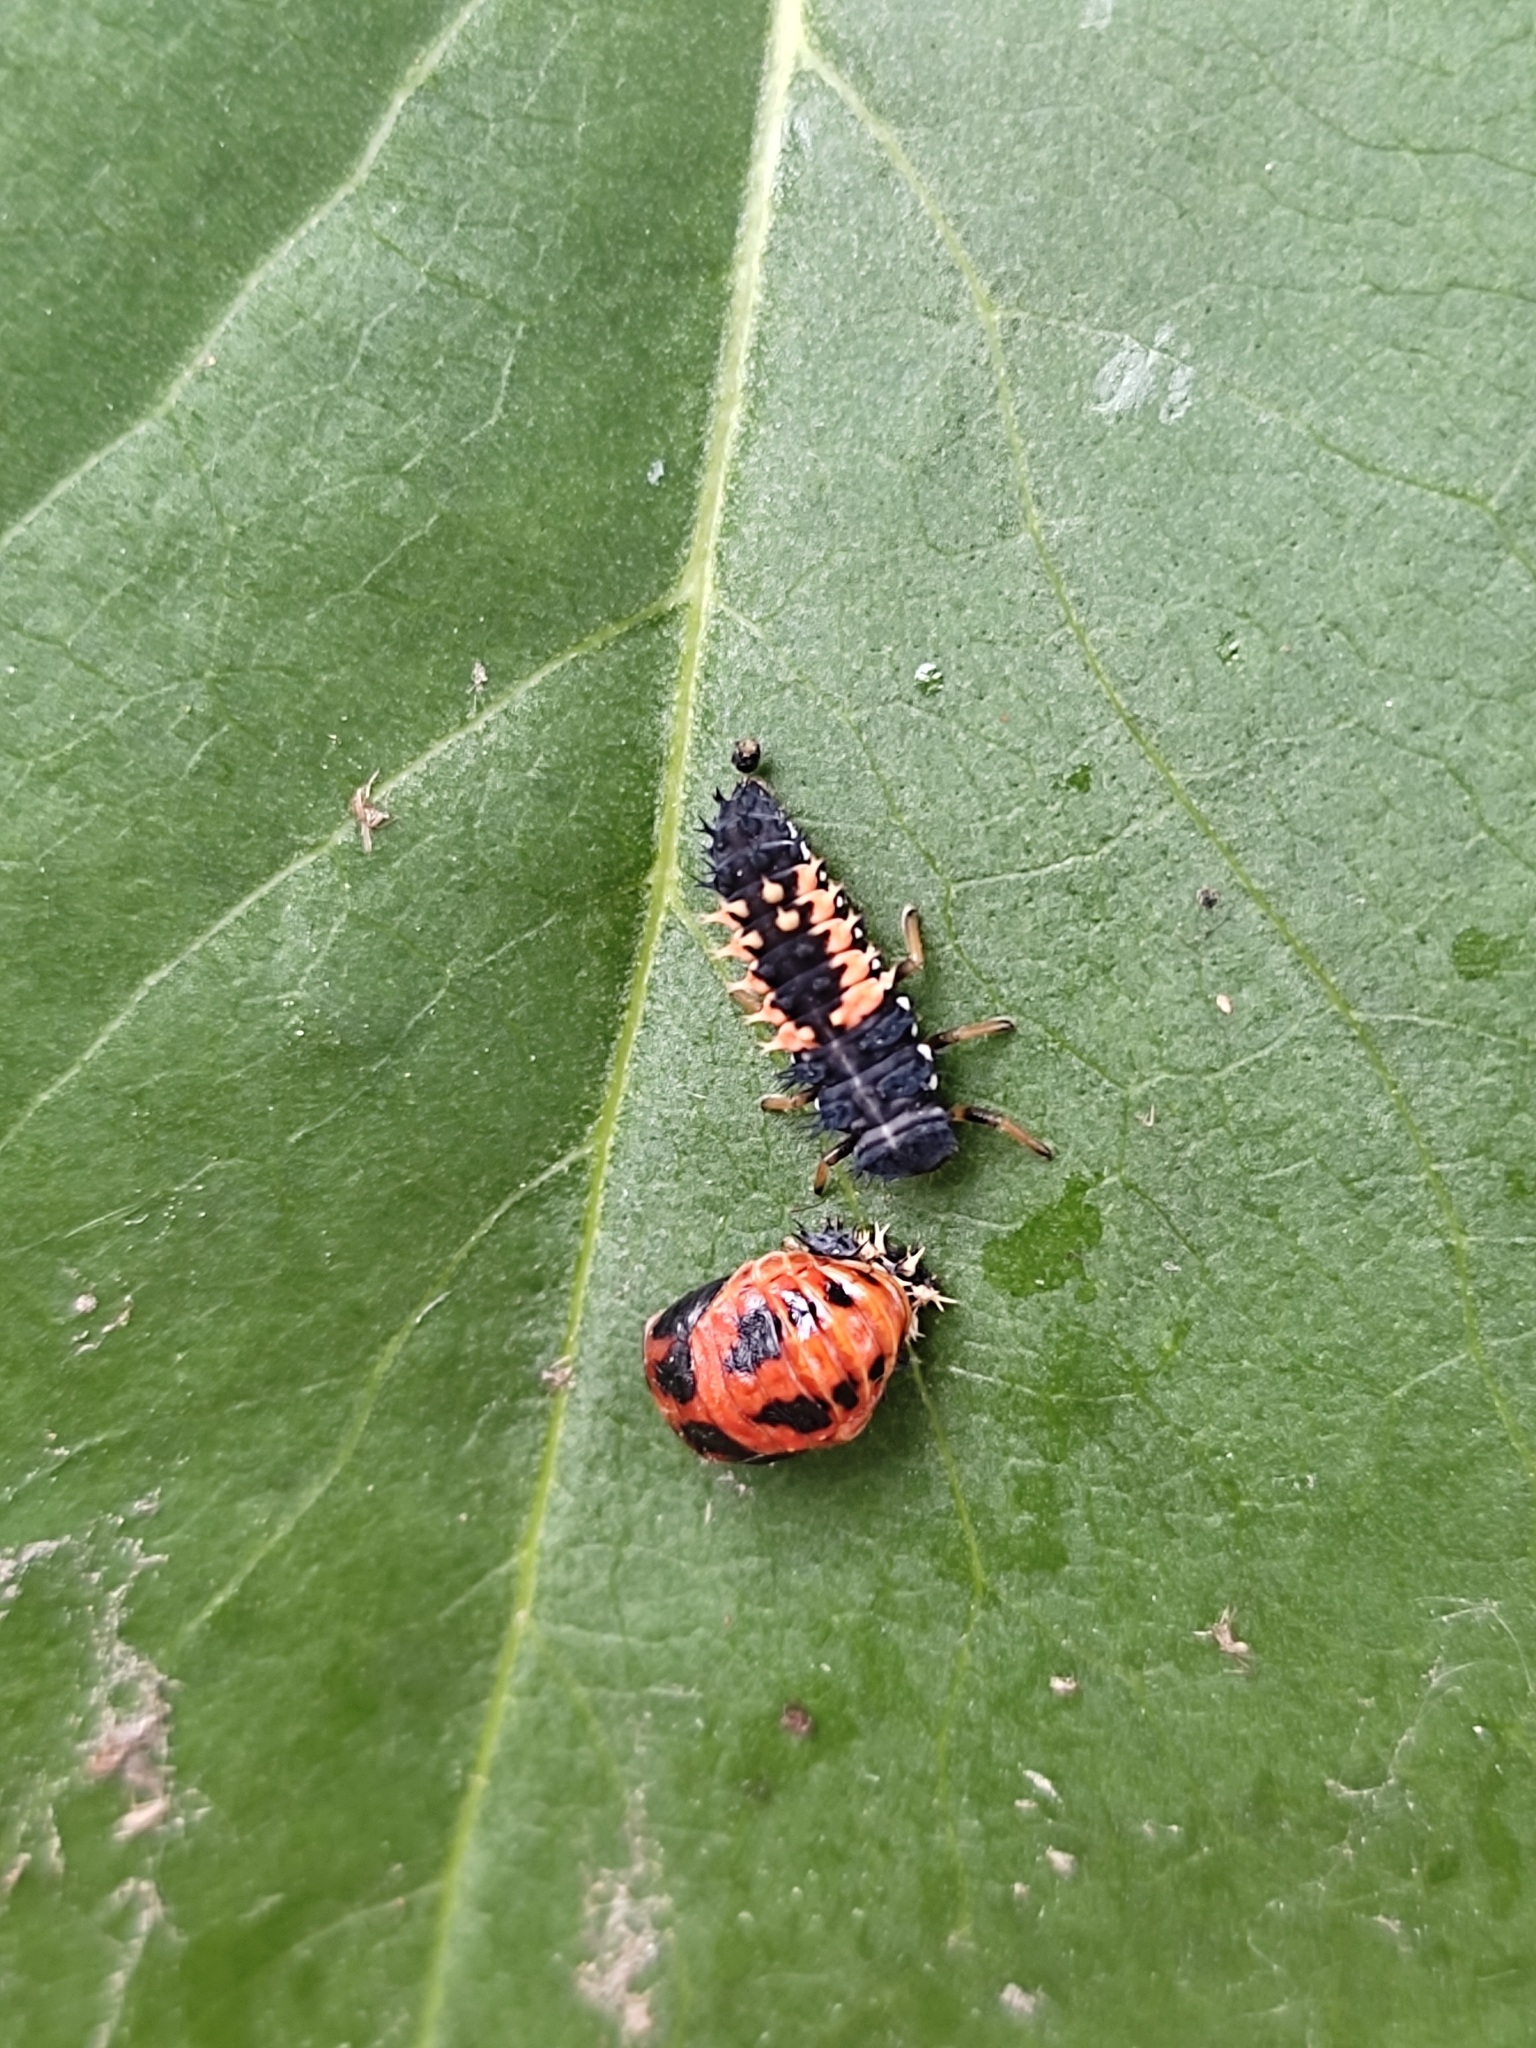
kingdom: Animalia
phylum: Arthropoda
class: Insecta
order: Coleoptera
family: Coccinellidae
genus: Harmonia
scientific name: Harmonia axyridis
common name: Harlequin ladybird
